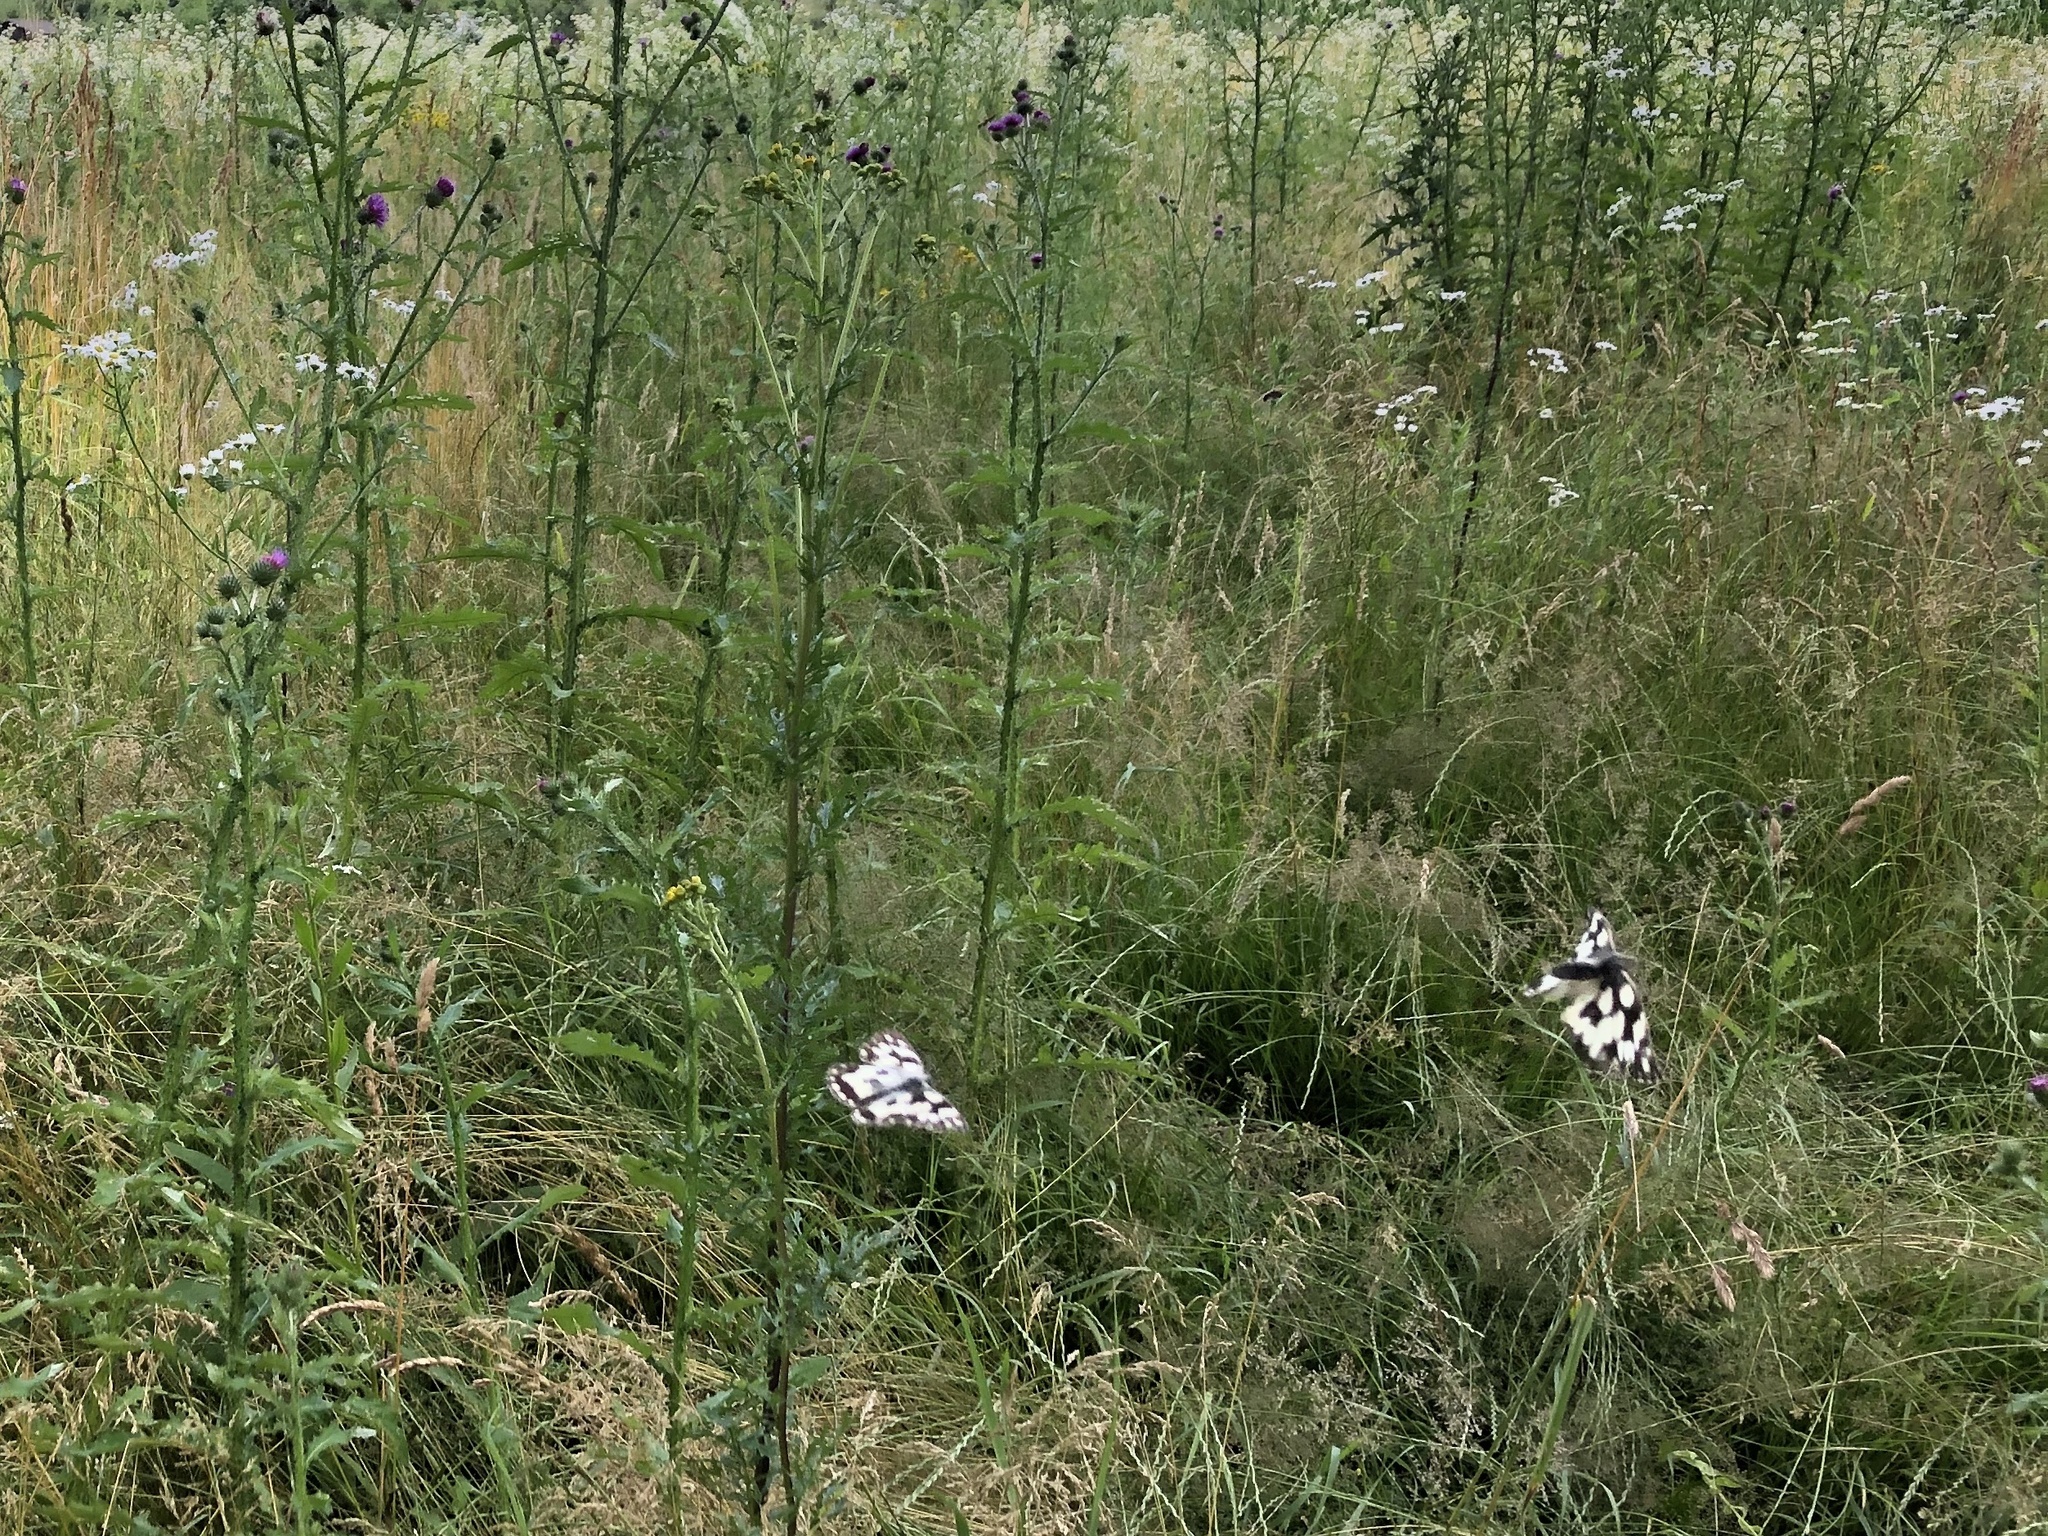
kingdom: Animalia
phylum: Arthropoda
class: Insecta
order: Lepidoptera
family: Nymphalidae
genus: Melanargia
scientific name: Melanargia galathea
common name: Marbled white
